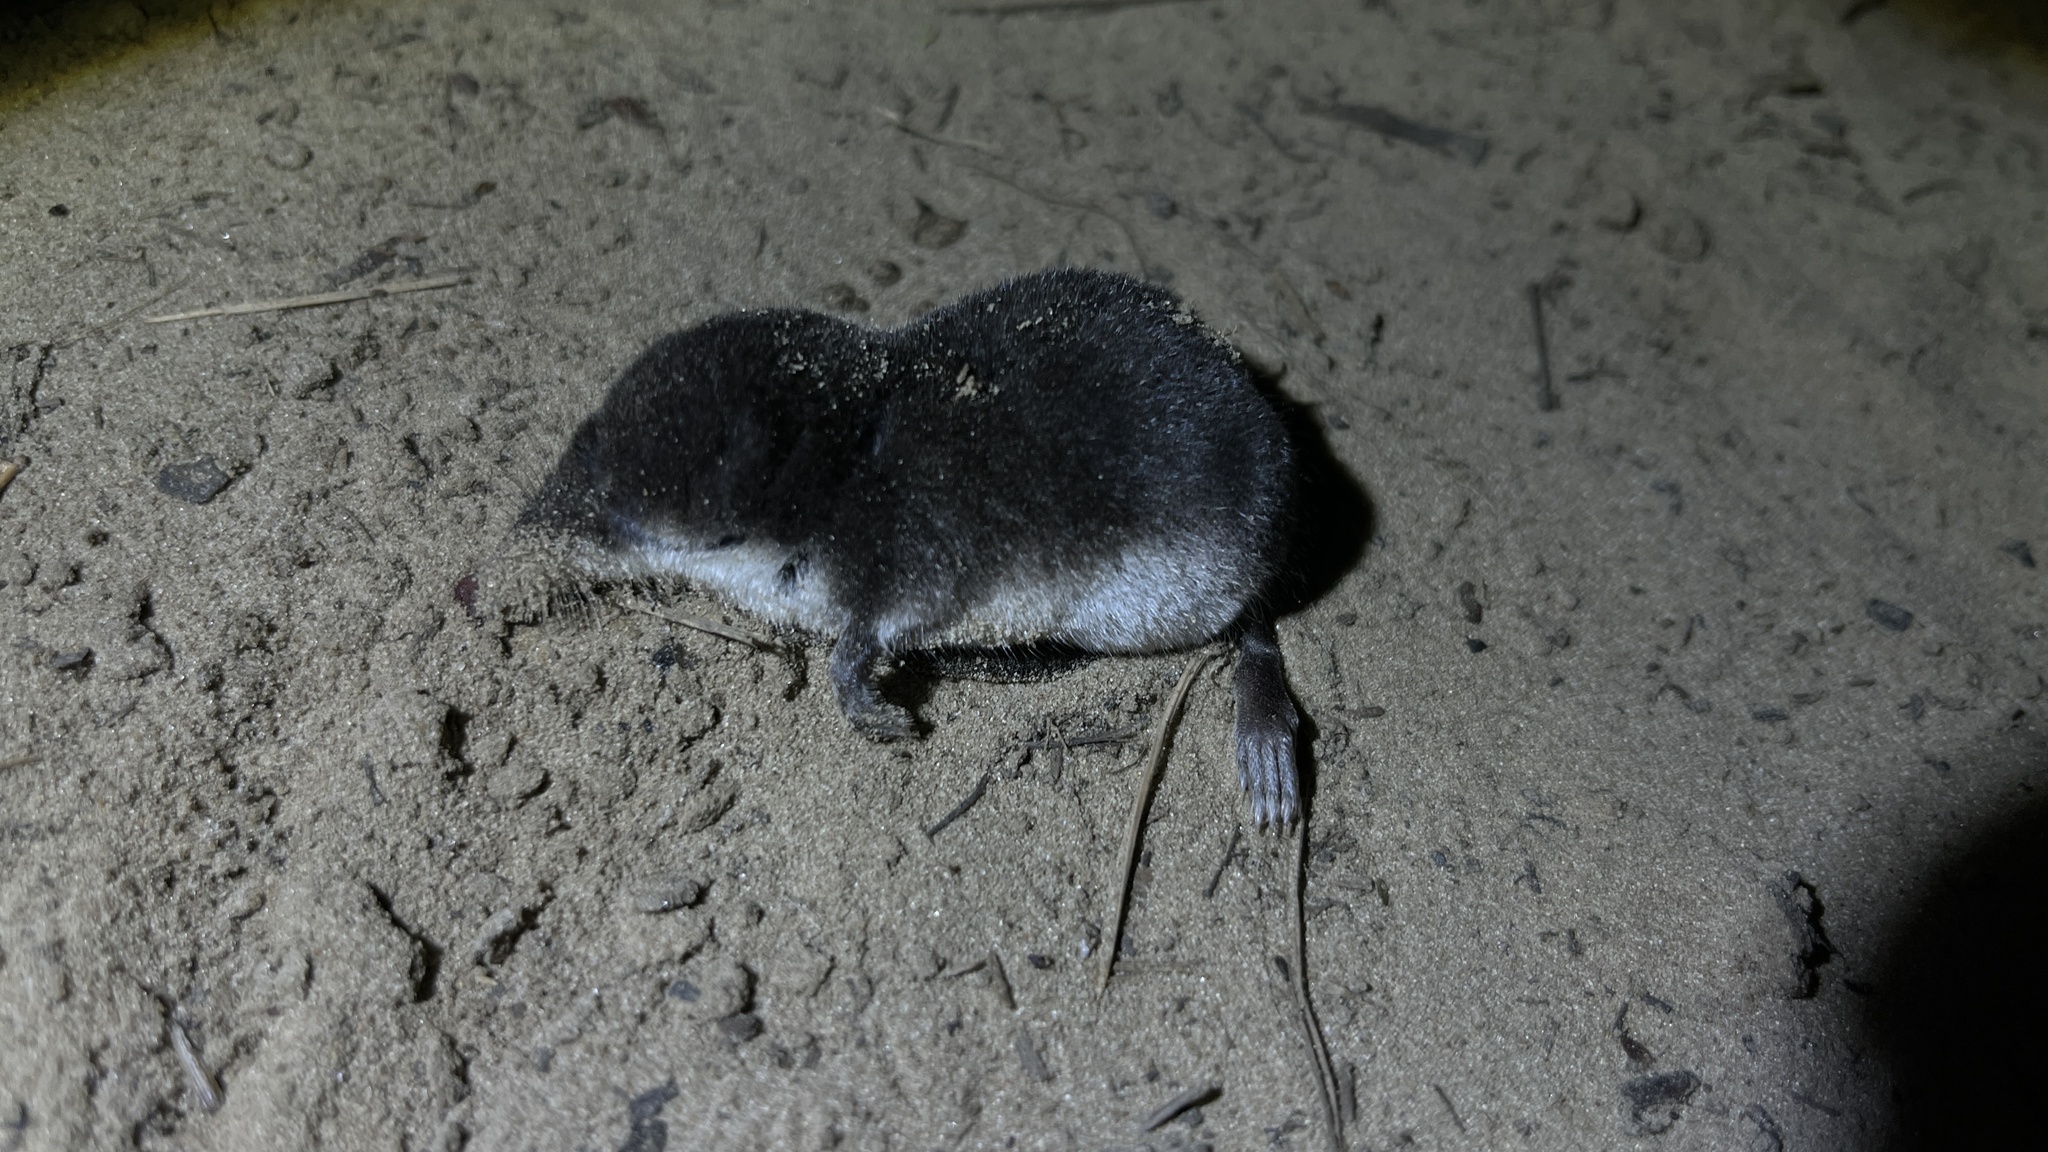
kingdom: Animalia
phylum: Chordata
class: Mammalia
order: Soricomorpha
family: Soricidae
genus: Neomys
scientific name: Neomys fodiens
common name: Eurasian water shrew
